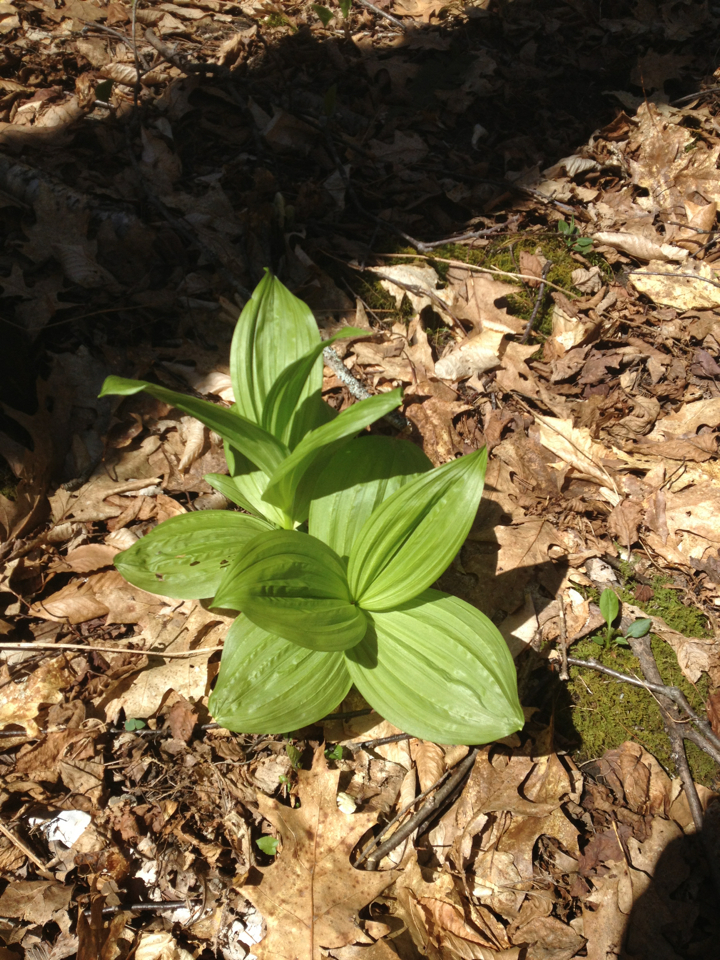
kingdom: Plantae
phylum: Tracheophyta
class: Liliopsida
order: Liliales
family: Melanthiaceae
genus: Veratrum
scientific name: Veratrum viride
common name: American false hellebore
